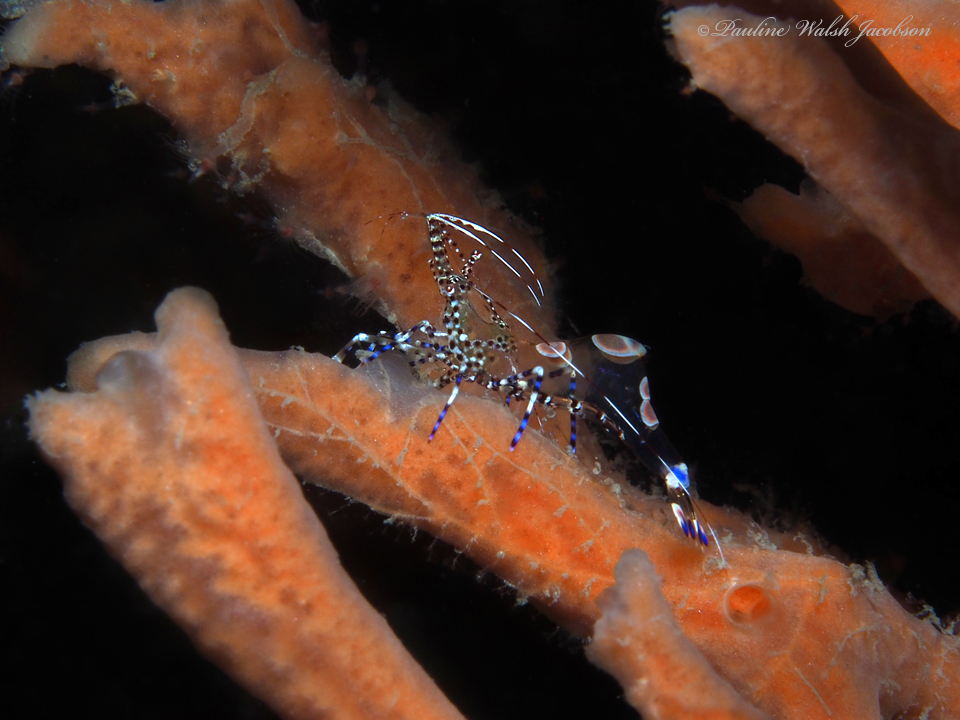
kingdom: Animalia
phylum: Arthropoda
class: Malacostraca
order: Decapoda
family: Palaemonidae
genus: Periclimenes
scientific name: Periclimenes yucatanicus
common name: Spotted cleaning shrimp
